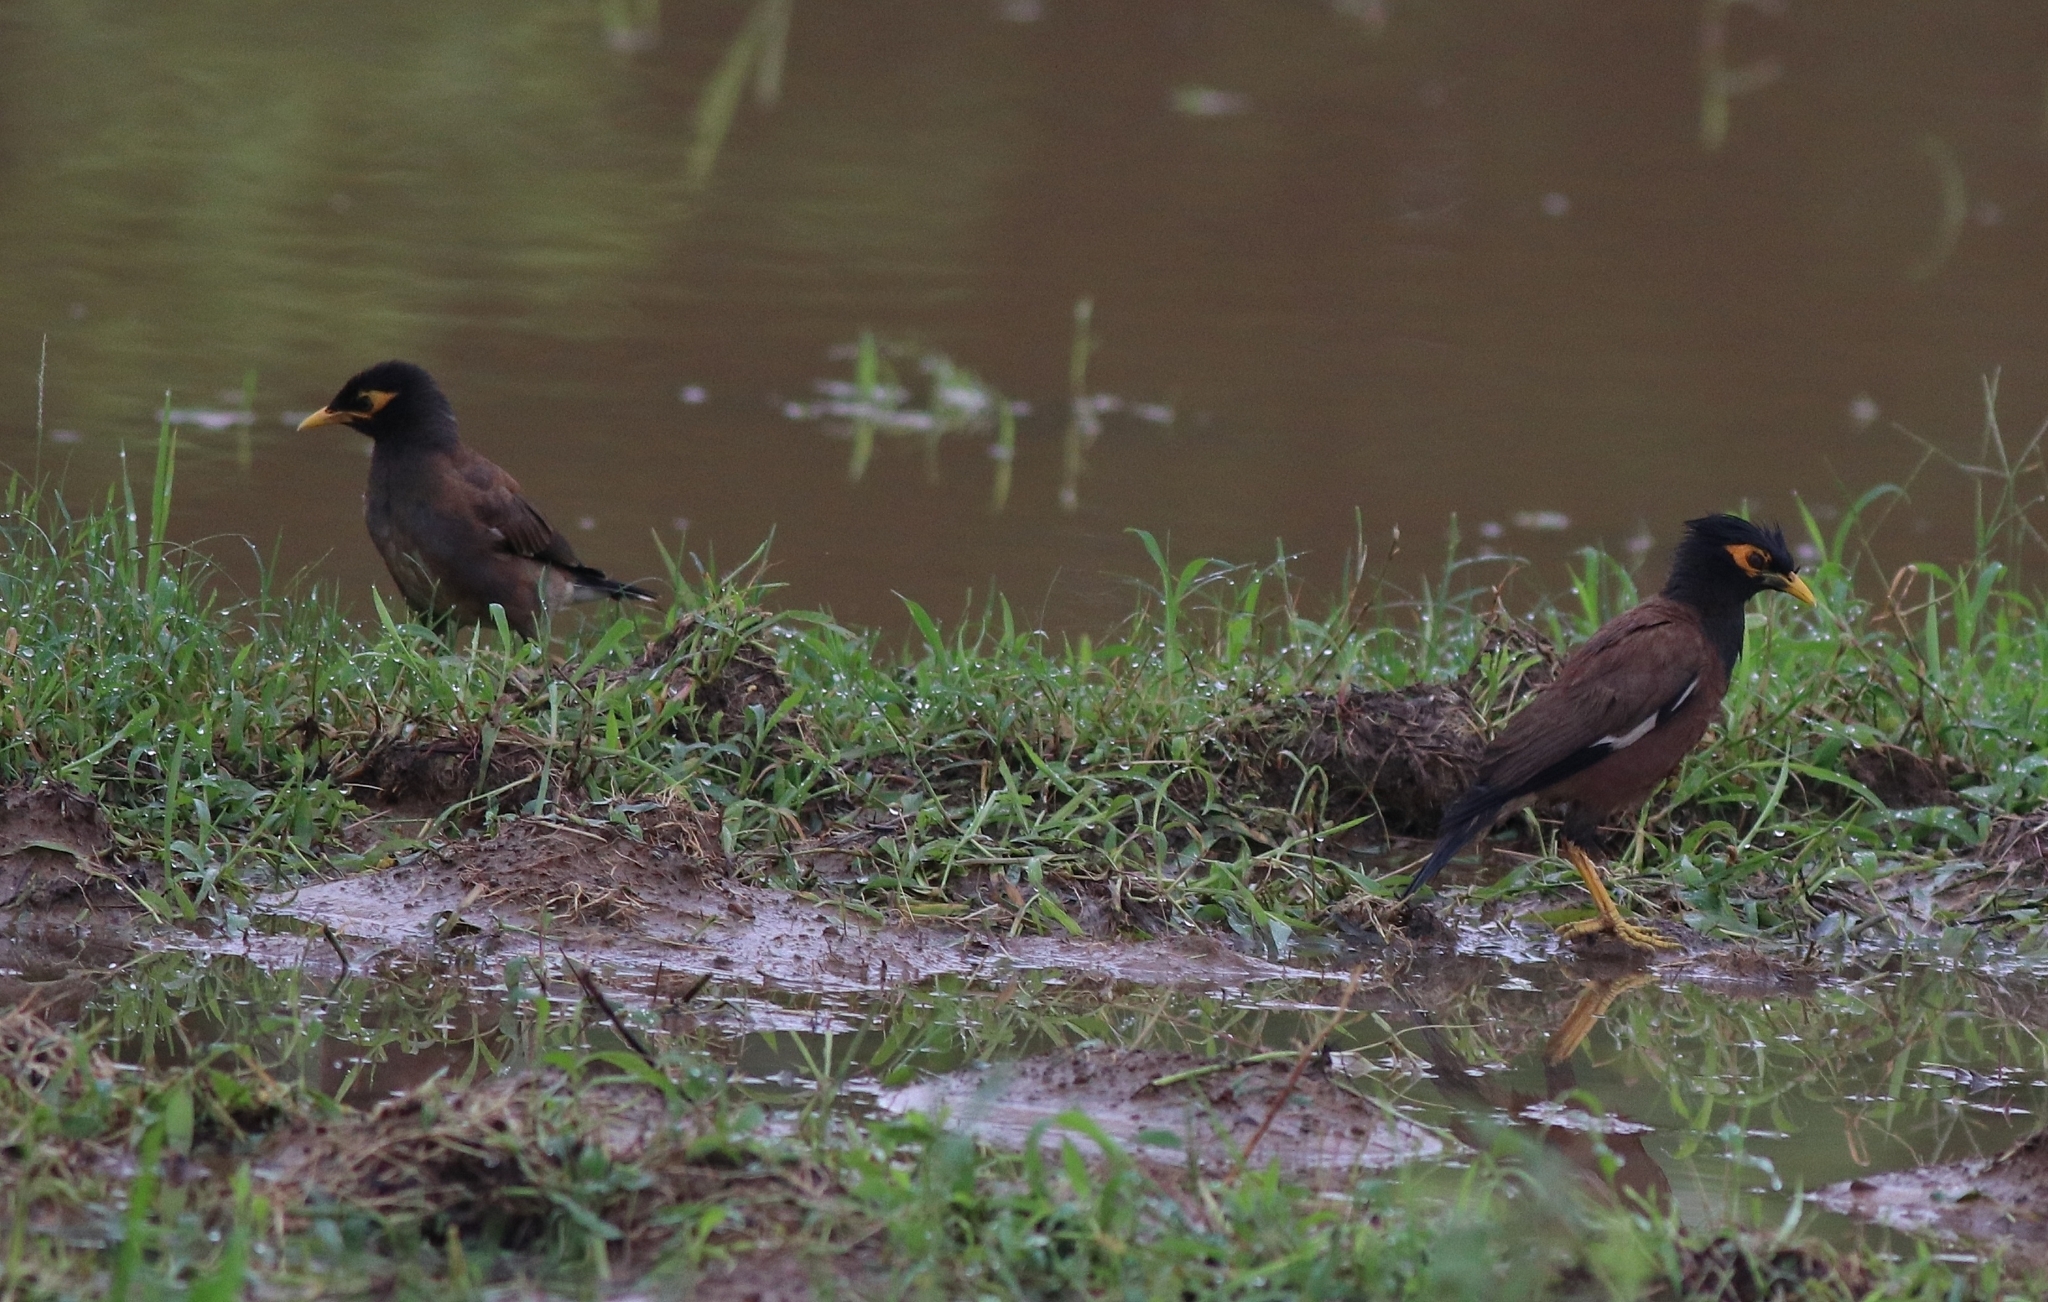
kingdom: Animalia
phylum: Chordata
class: Aves
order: Passeriformes
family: Sturnidae
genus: Acridotheres
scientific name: Acridotheres tristis
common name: Common myna
